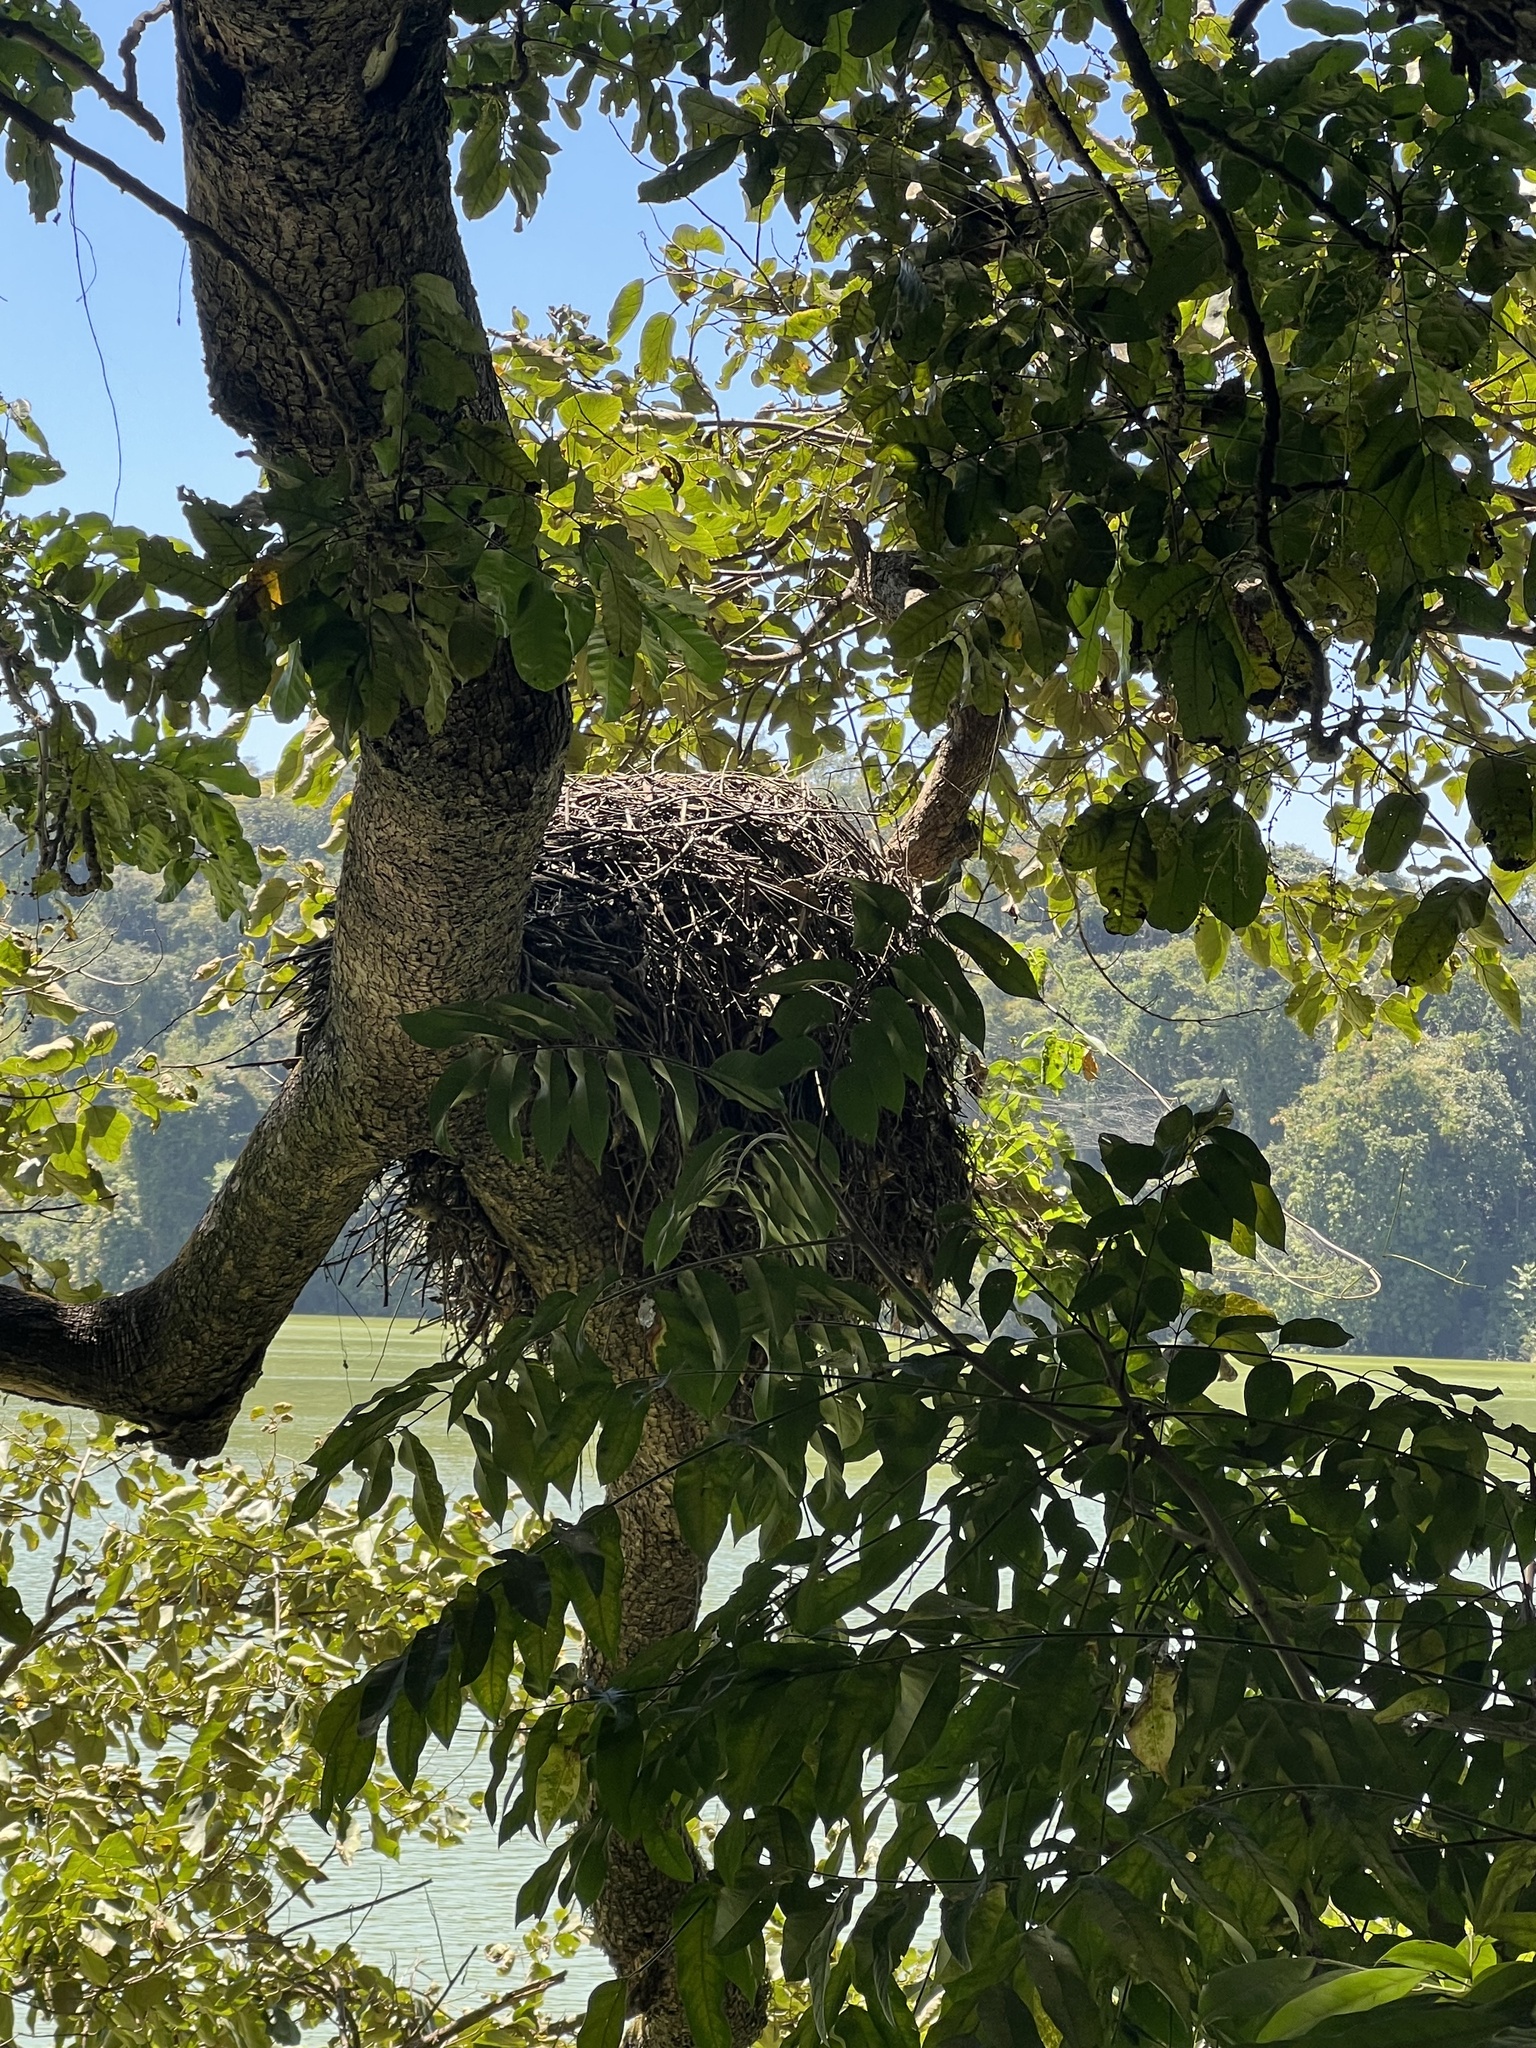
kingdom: Animalia
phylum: Chordata
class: Aves
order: Pelecaniformes
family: Scopidae
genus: Scopus
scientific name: Scopus umbretta
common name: Hamerkop
